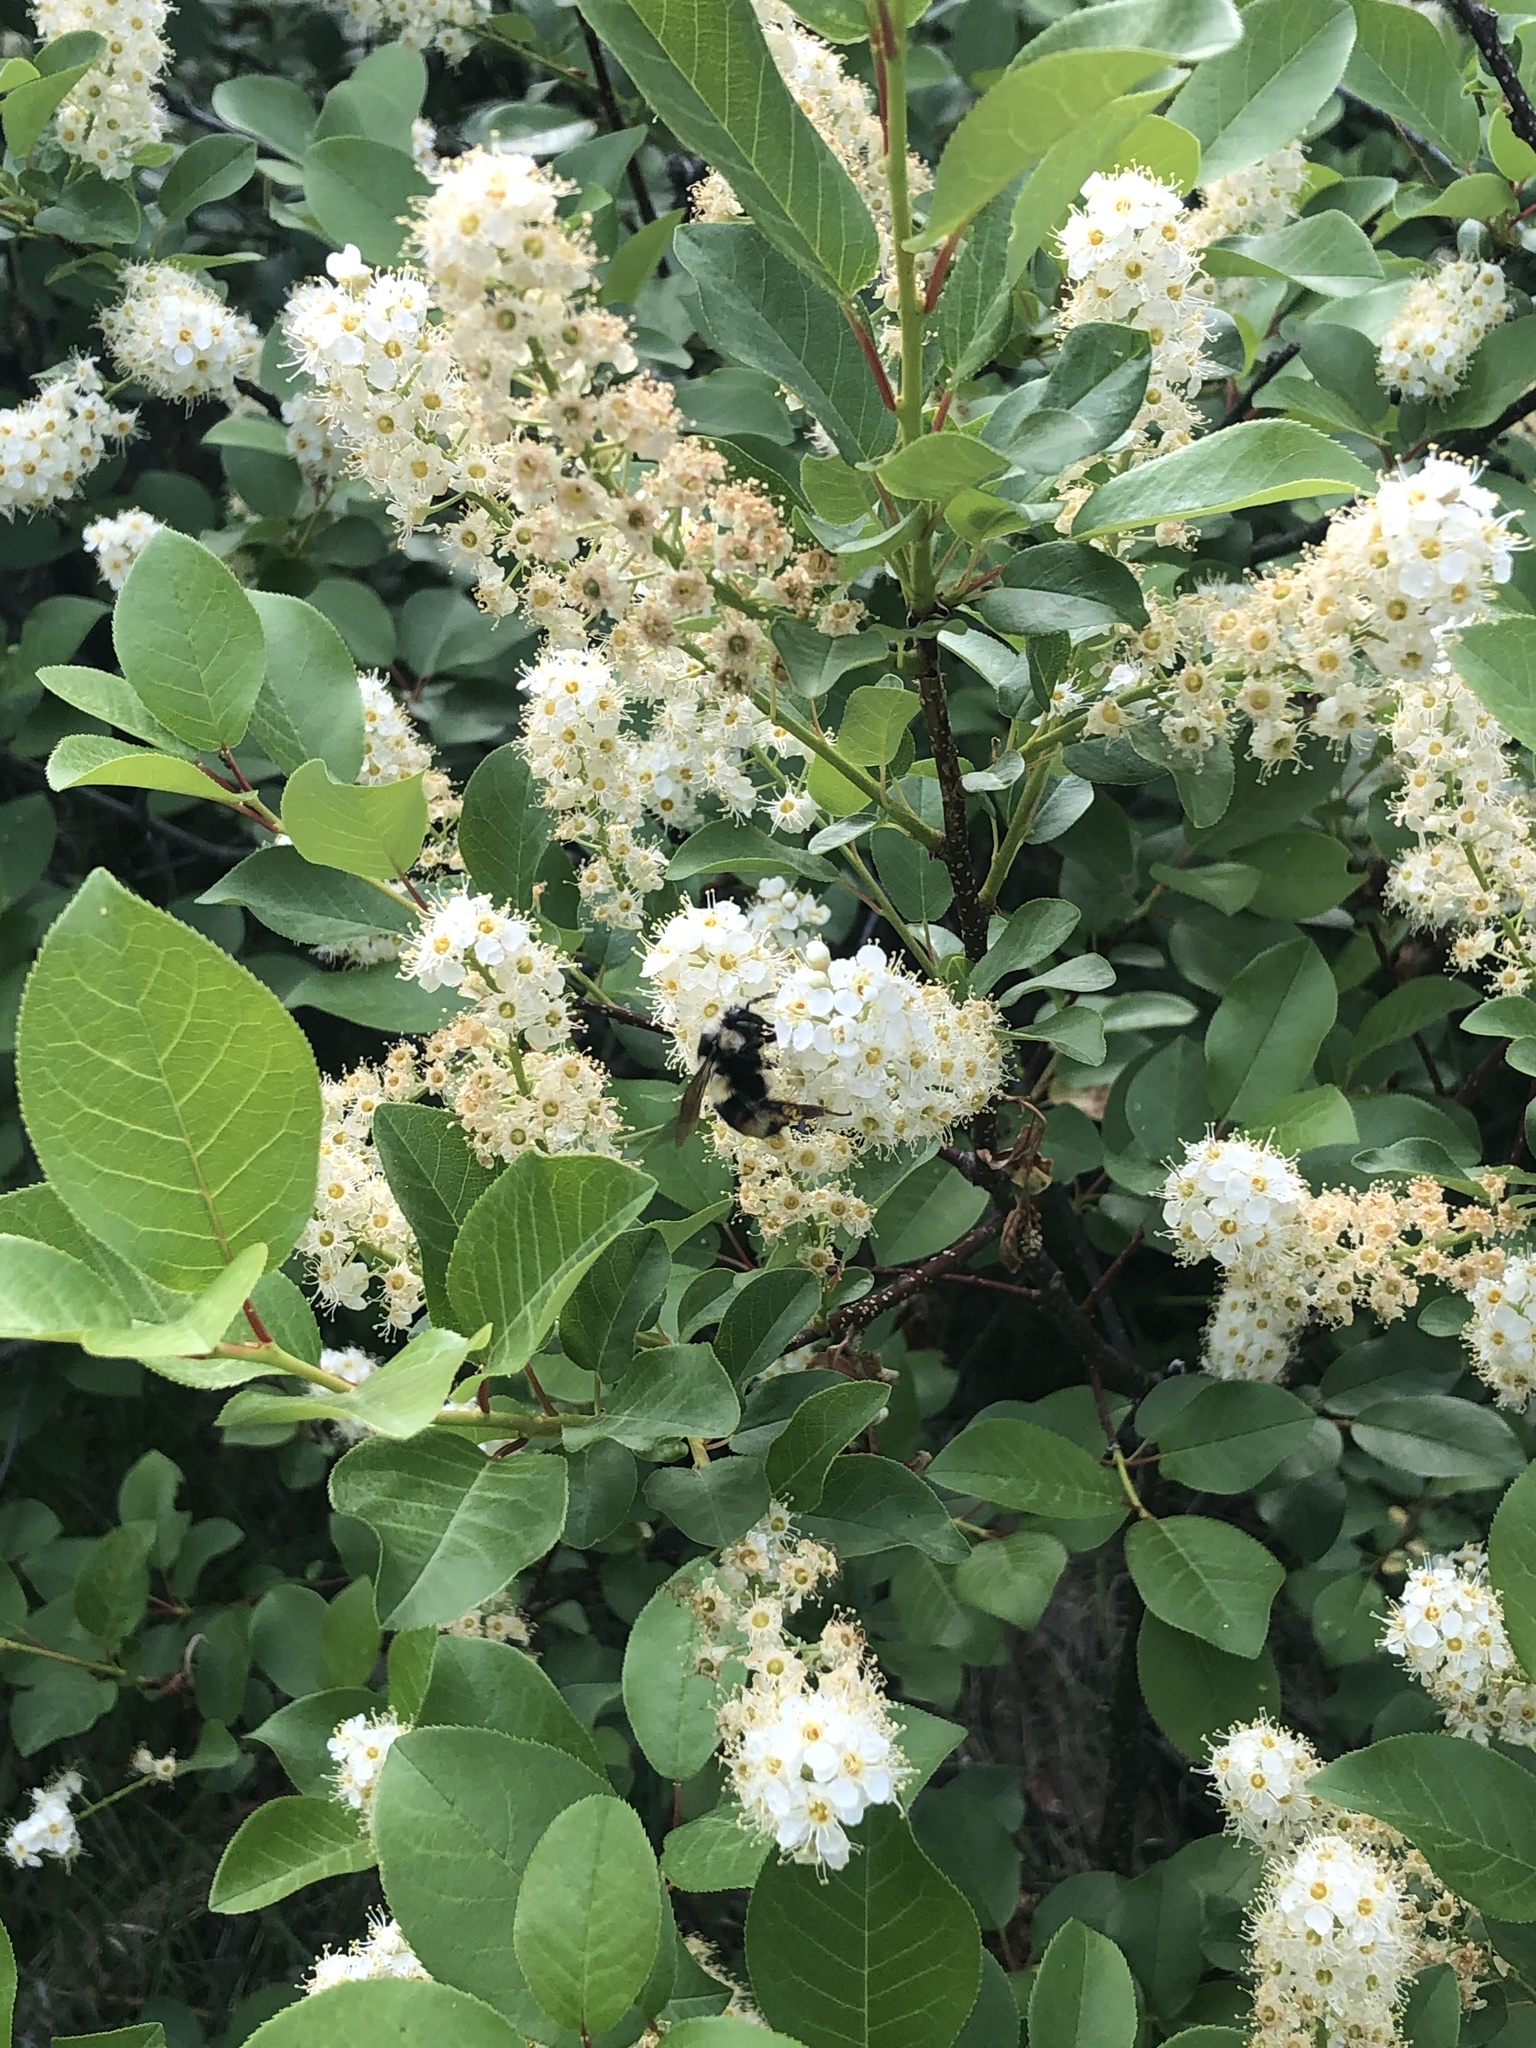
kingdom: Animalia
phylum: Arthropoda
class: Insecta
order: Hymenoptera
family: Apidae
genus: Bombus
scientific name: Bombus vancouverensis
